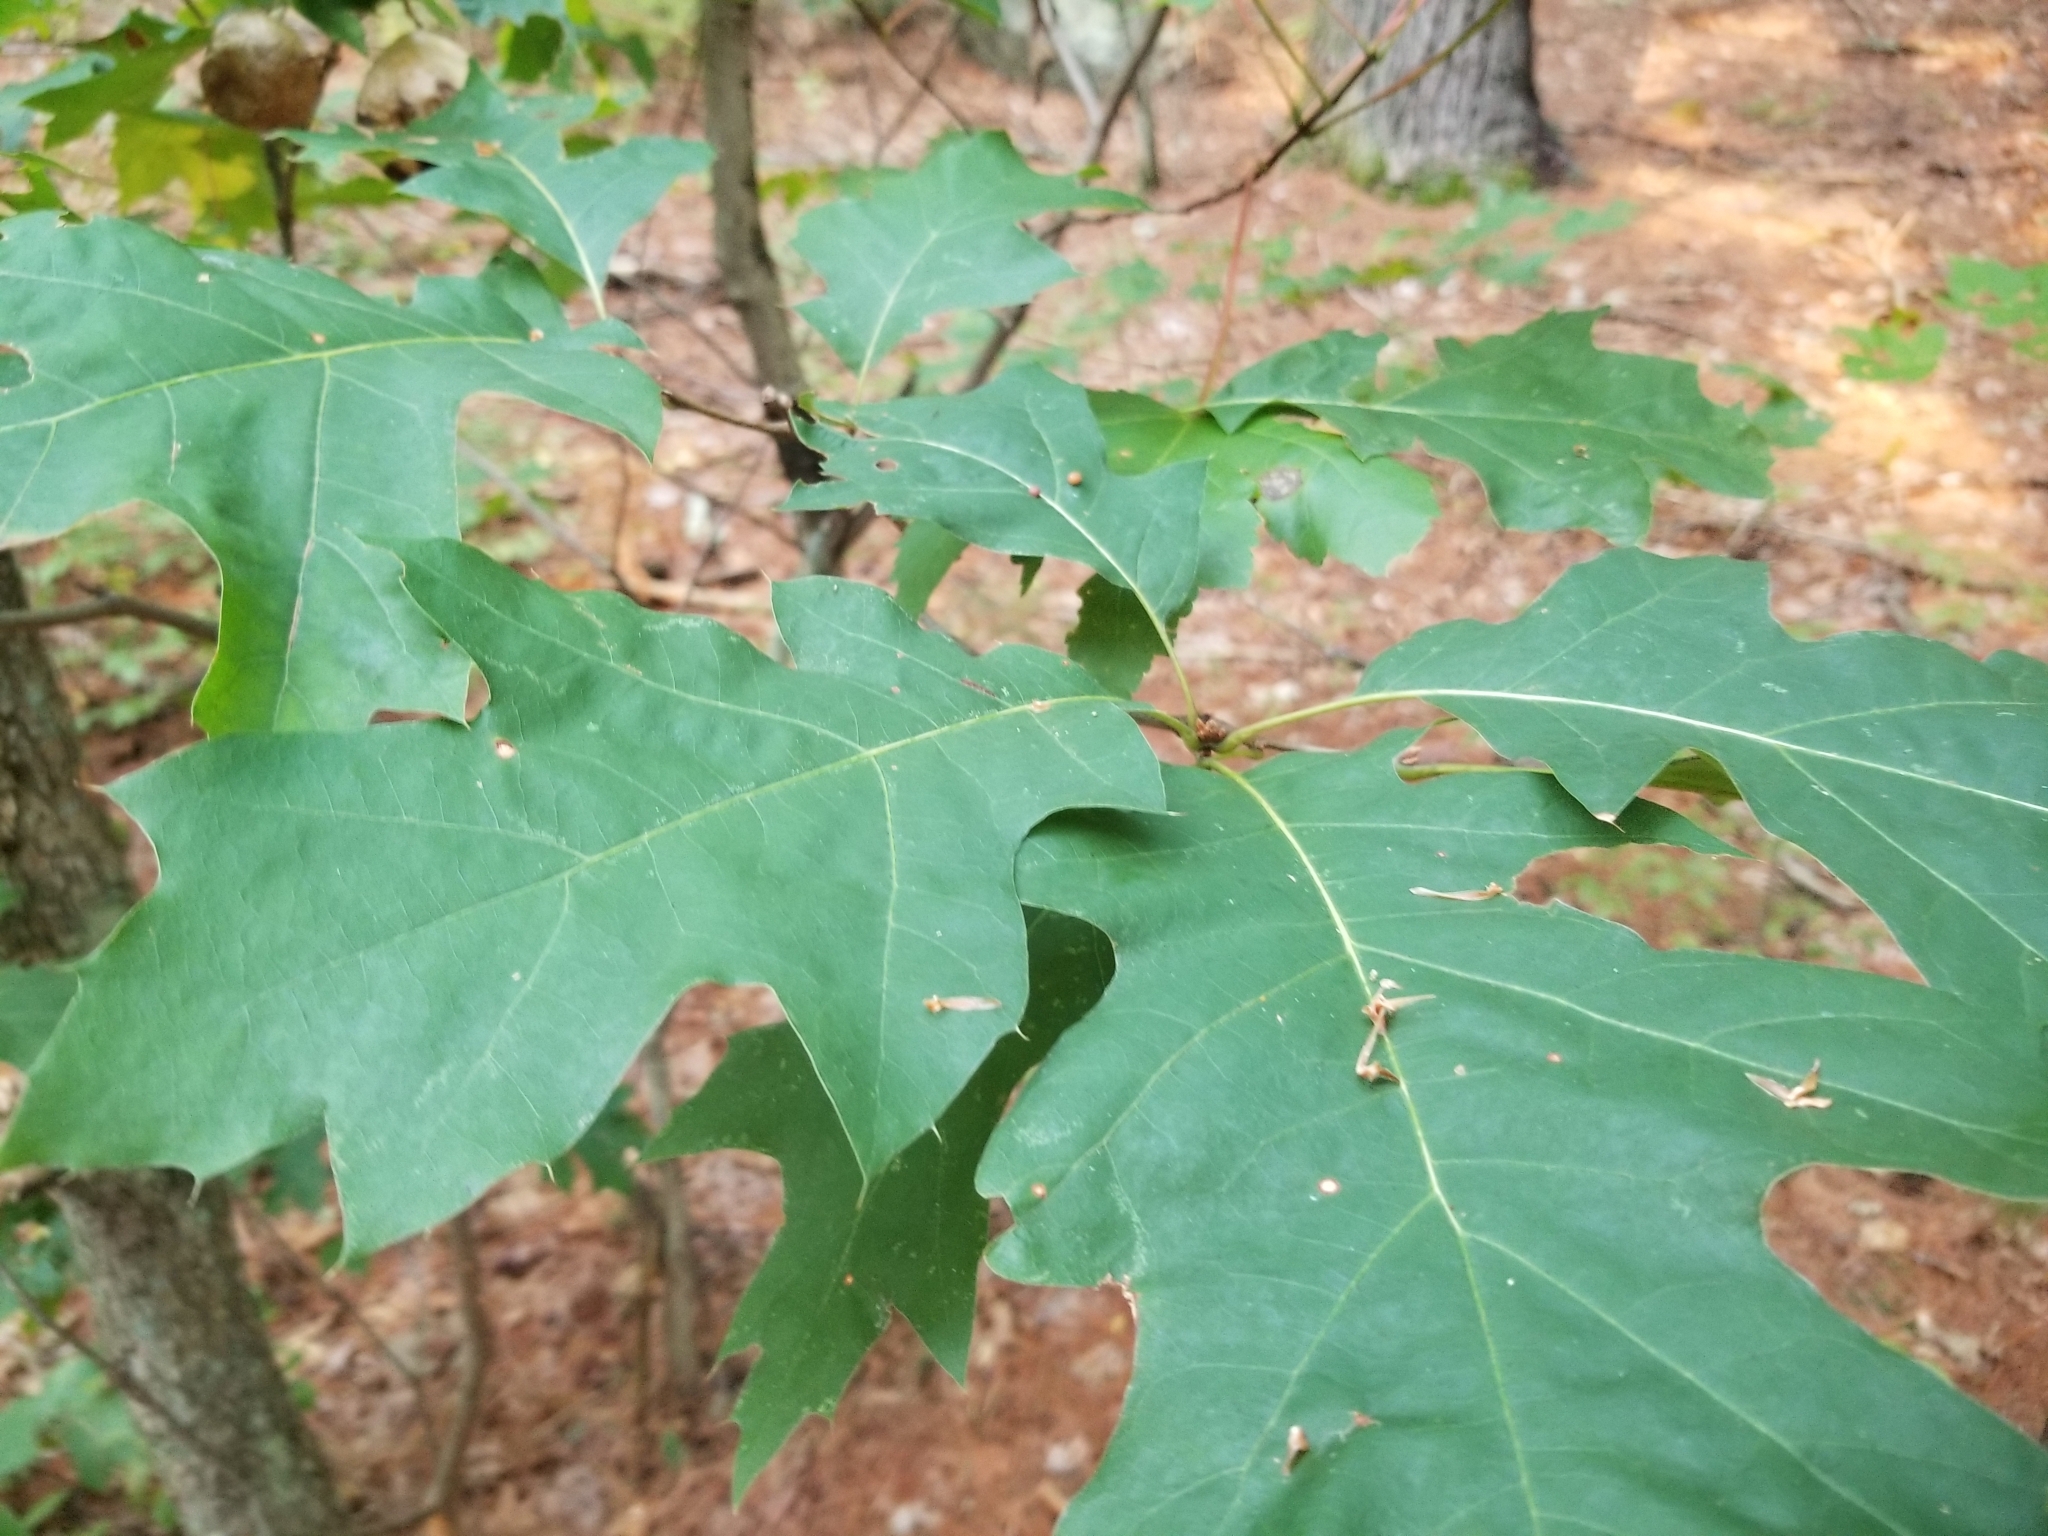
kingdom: Animalia
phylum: Arthropoda
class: Insecta
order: Diptera
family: Cecidomyiidae
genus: Polystepha
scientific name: Polystepha pilulae
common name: Oak leaf gall midge
